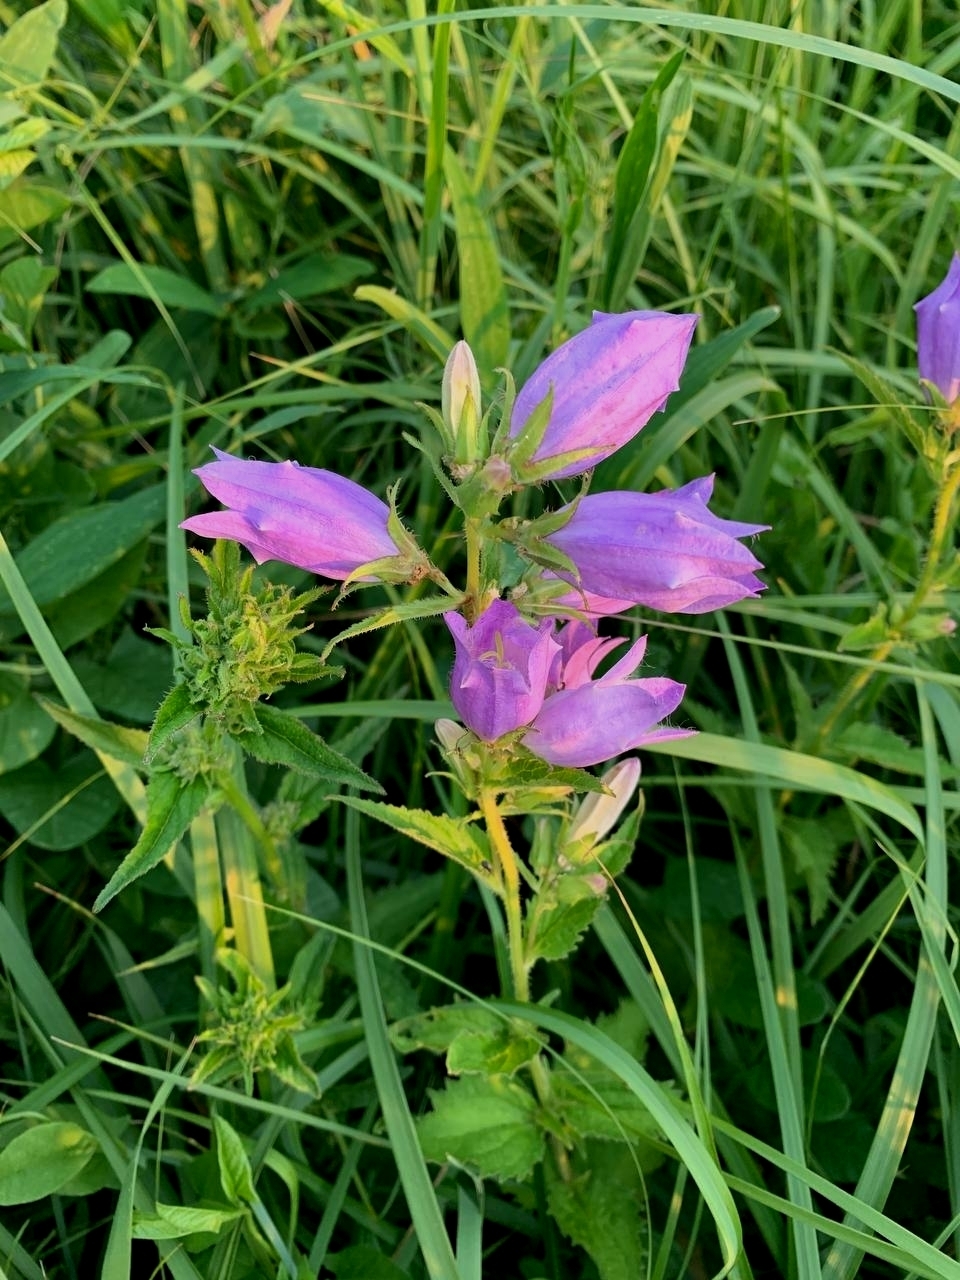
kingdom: Plantae
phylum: Tracheophyta
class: Magnoliopsida
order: Asterales
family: Campanulaceae
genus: Campanula
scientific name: Campanula trachelium
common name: Nettle-leaved bellflower
